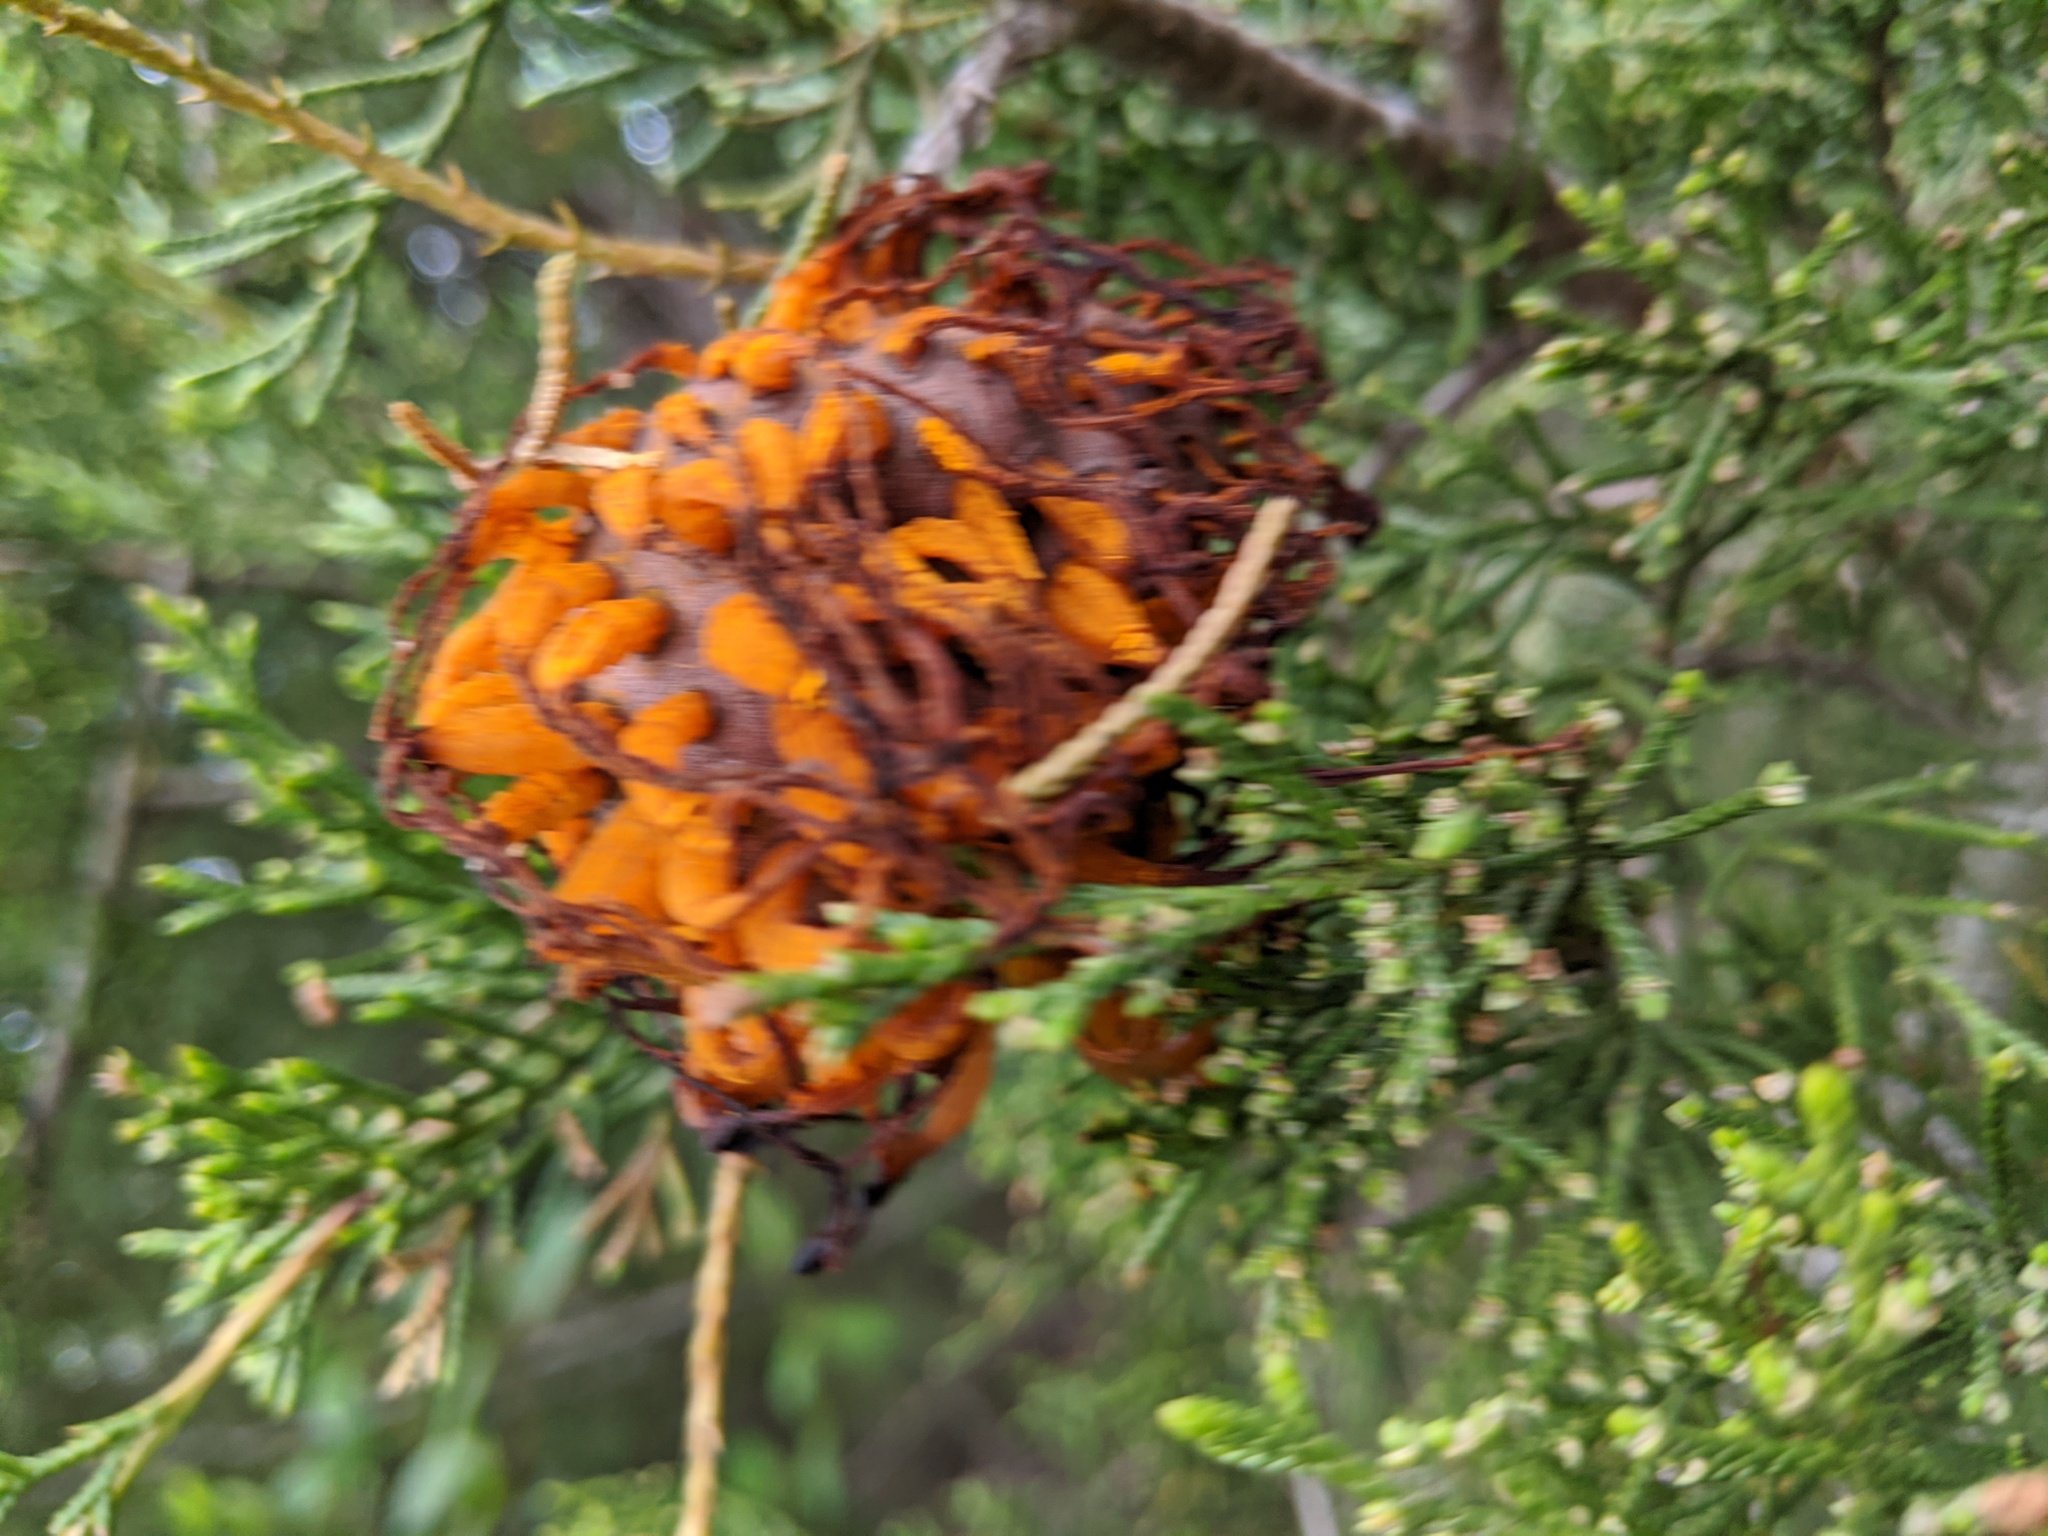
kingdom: Fungi
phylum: Basidiomycota
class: Pucciniomycetes
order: Pucciniales
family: Gymnosporangiaceae
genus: Gymnosporangium
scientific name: Gymnosporangium juniperi-virginianae
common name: Juniper-apple rust
